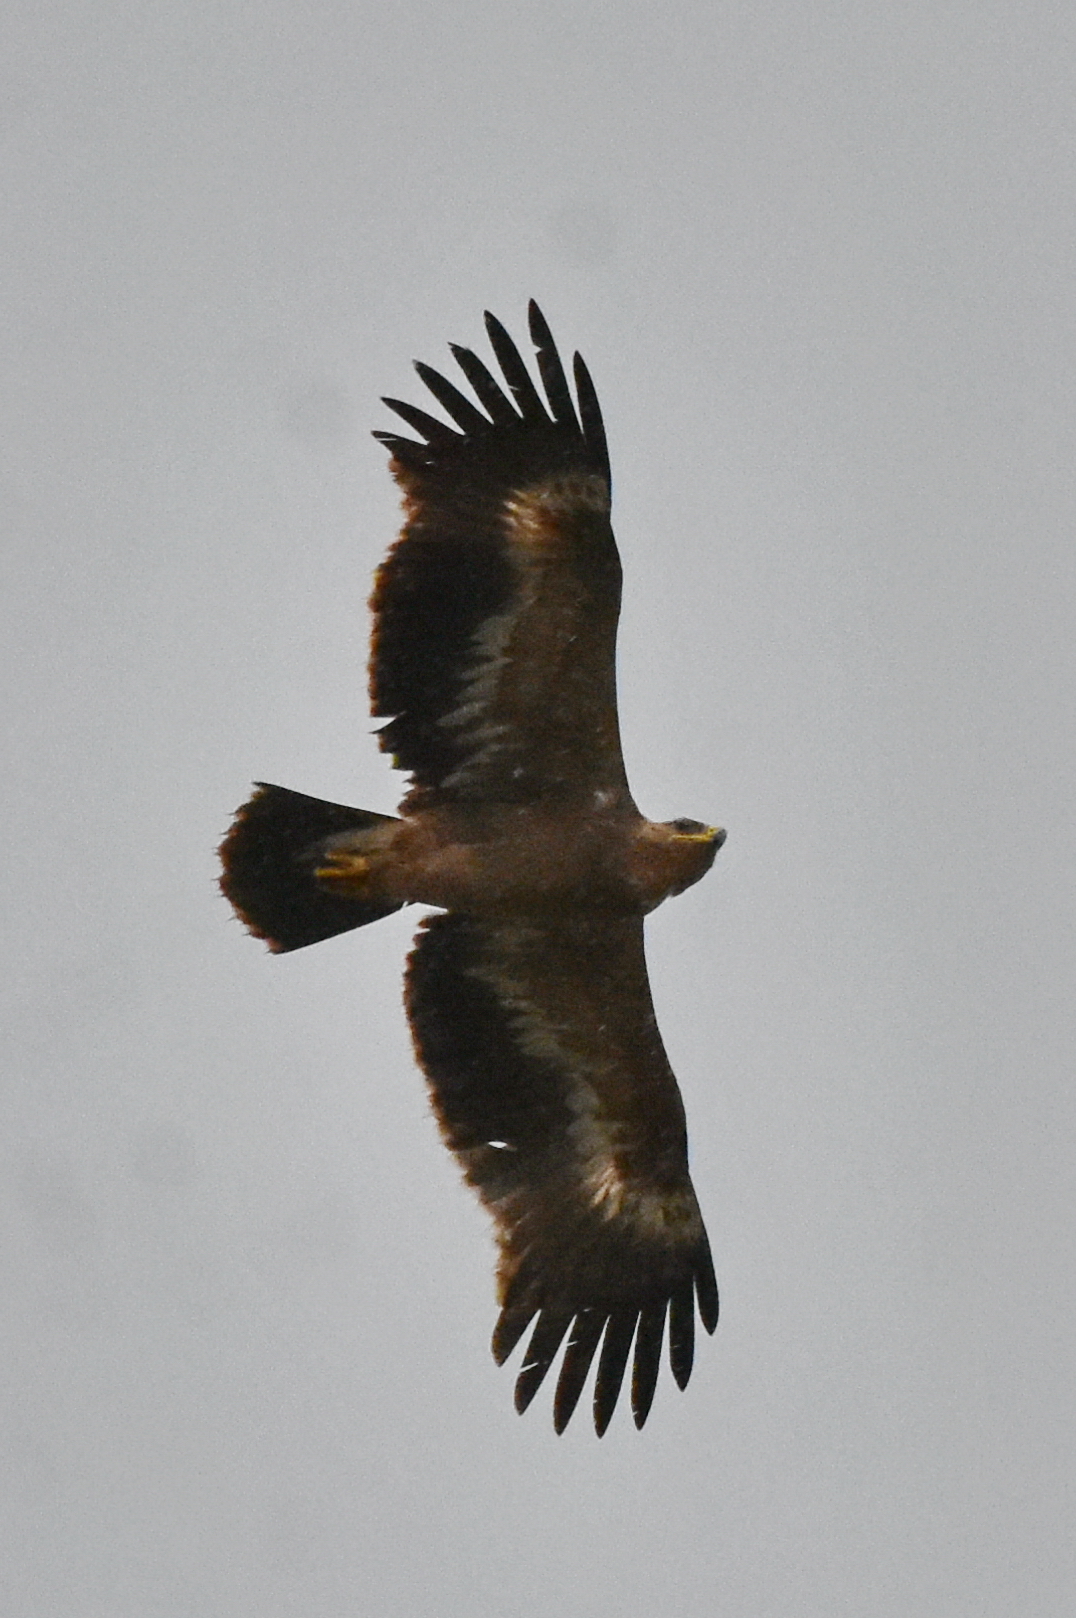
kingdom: Animalia
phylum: Chordata
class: Aves
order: Accipitriformes
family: Accipitridae
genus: Aquila
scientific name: Aquila nipalensis
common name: Steppe eagle
